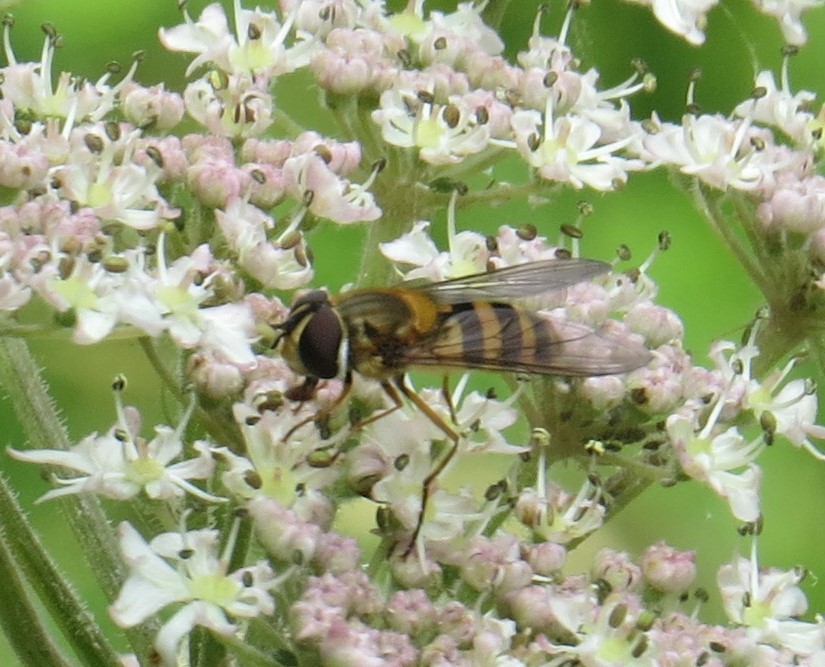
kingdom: Animalia
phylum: Arthropoda
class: Insecta
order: Diptera
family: Syrphidae
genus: Epistrophe
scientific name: Epistrophe grossulariae
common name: Black-horned smoothtail
